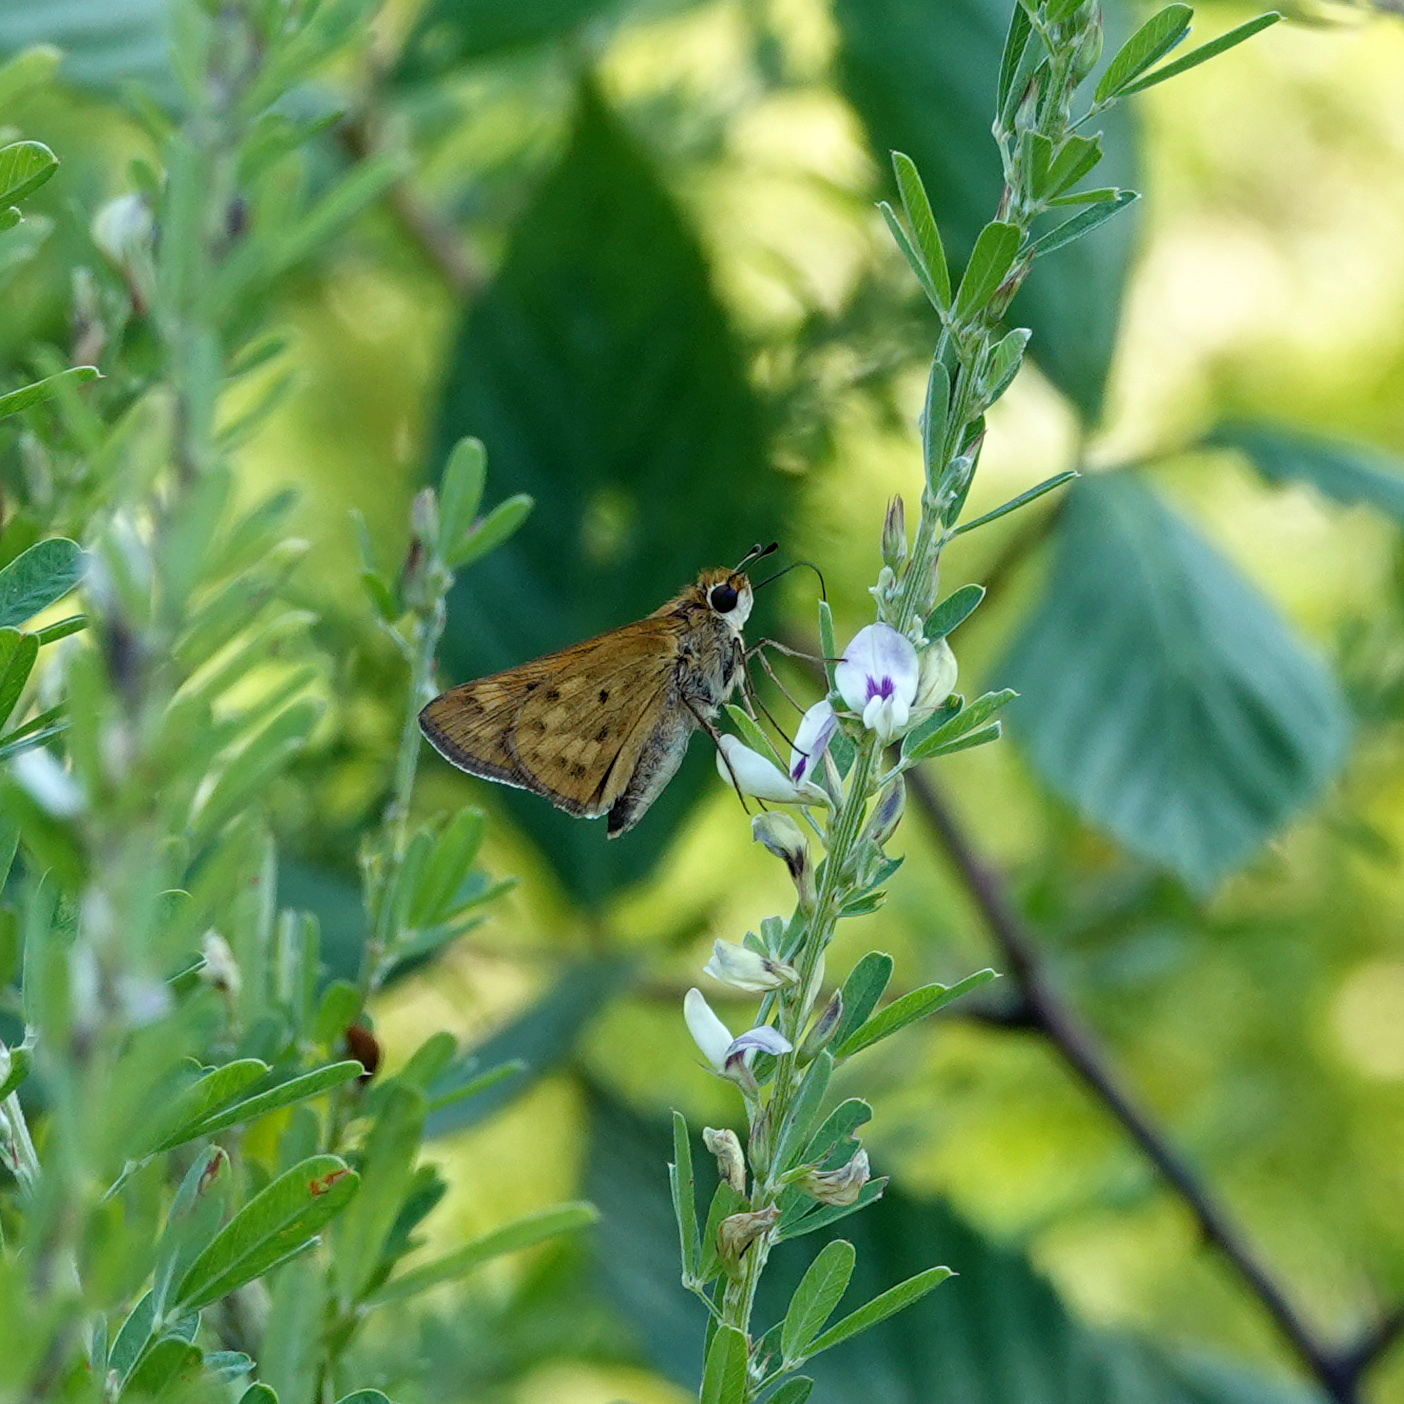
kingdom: Animalia
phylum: Arthropoda
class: Insecta
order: Lepidoptera
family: Hesperiidae
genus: Hylephila
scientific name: Hylephila phyleus
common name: Fiery skipper
